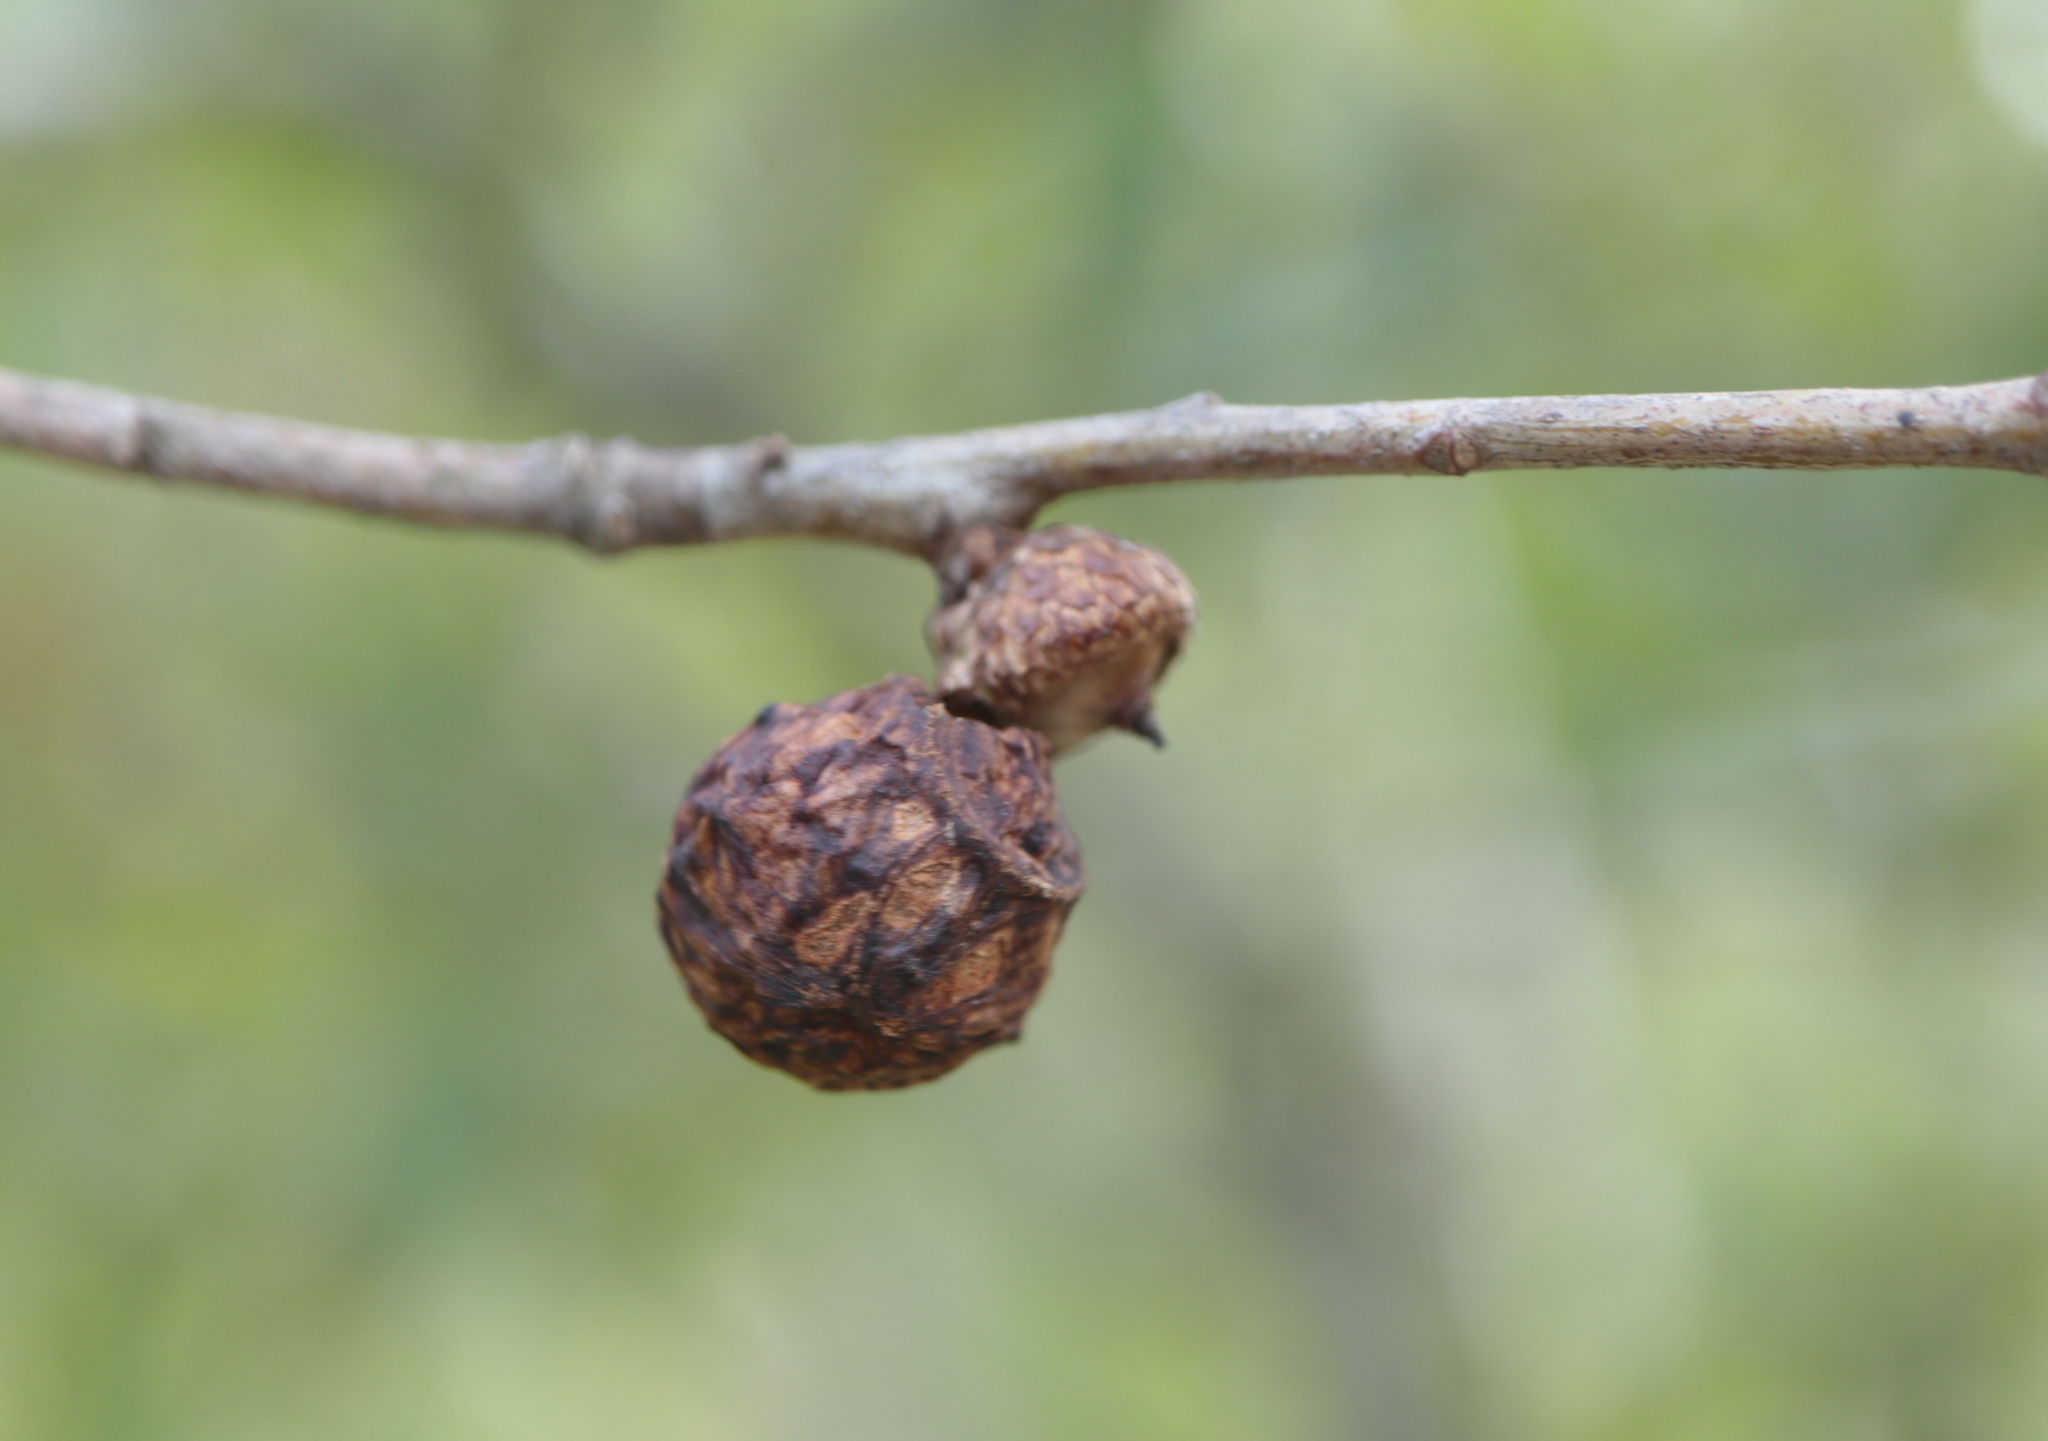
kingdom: Animalia
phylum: Arthropoda
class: Insecta
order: Hymenoptera
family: Cynipidae
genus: Amphibolips
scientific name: Amphibolips
